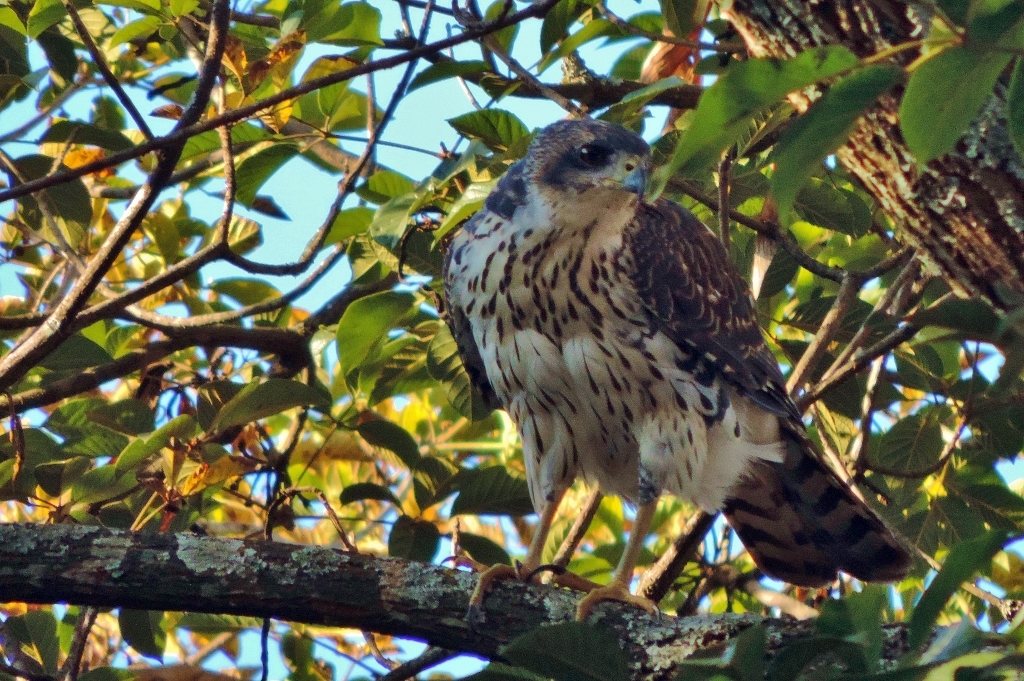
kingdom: Animalia
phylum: Chordata
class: Aves
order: Accipitriformes
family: Accipitridae
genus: Accipiter
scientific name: Accipiter melanoleucus
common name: Black sparrowhawk
